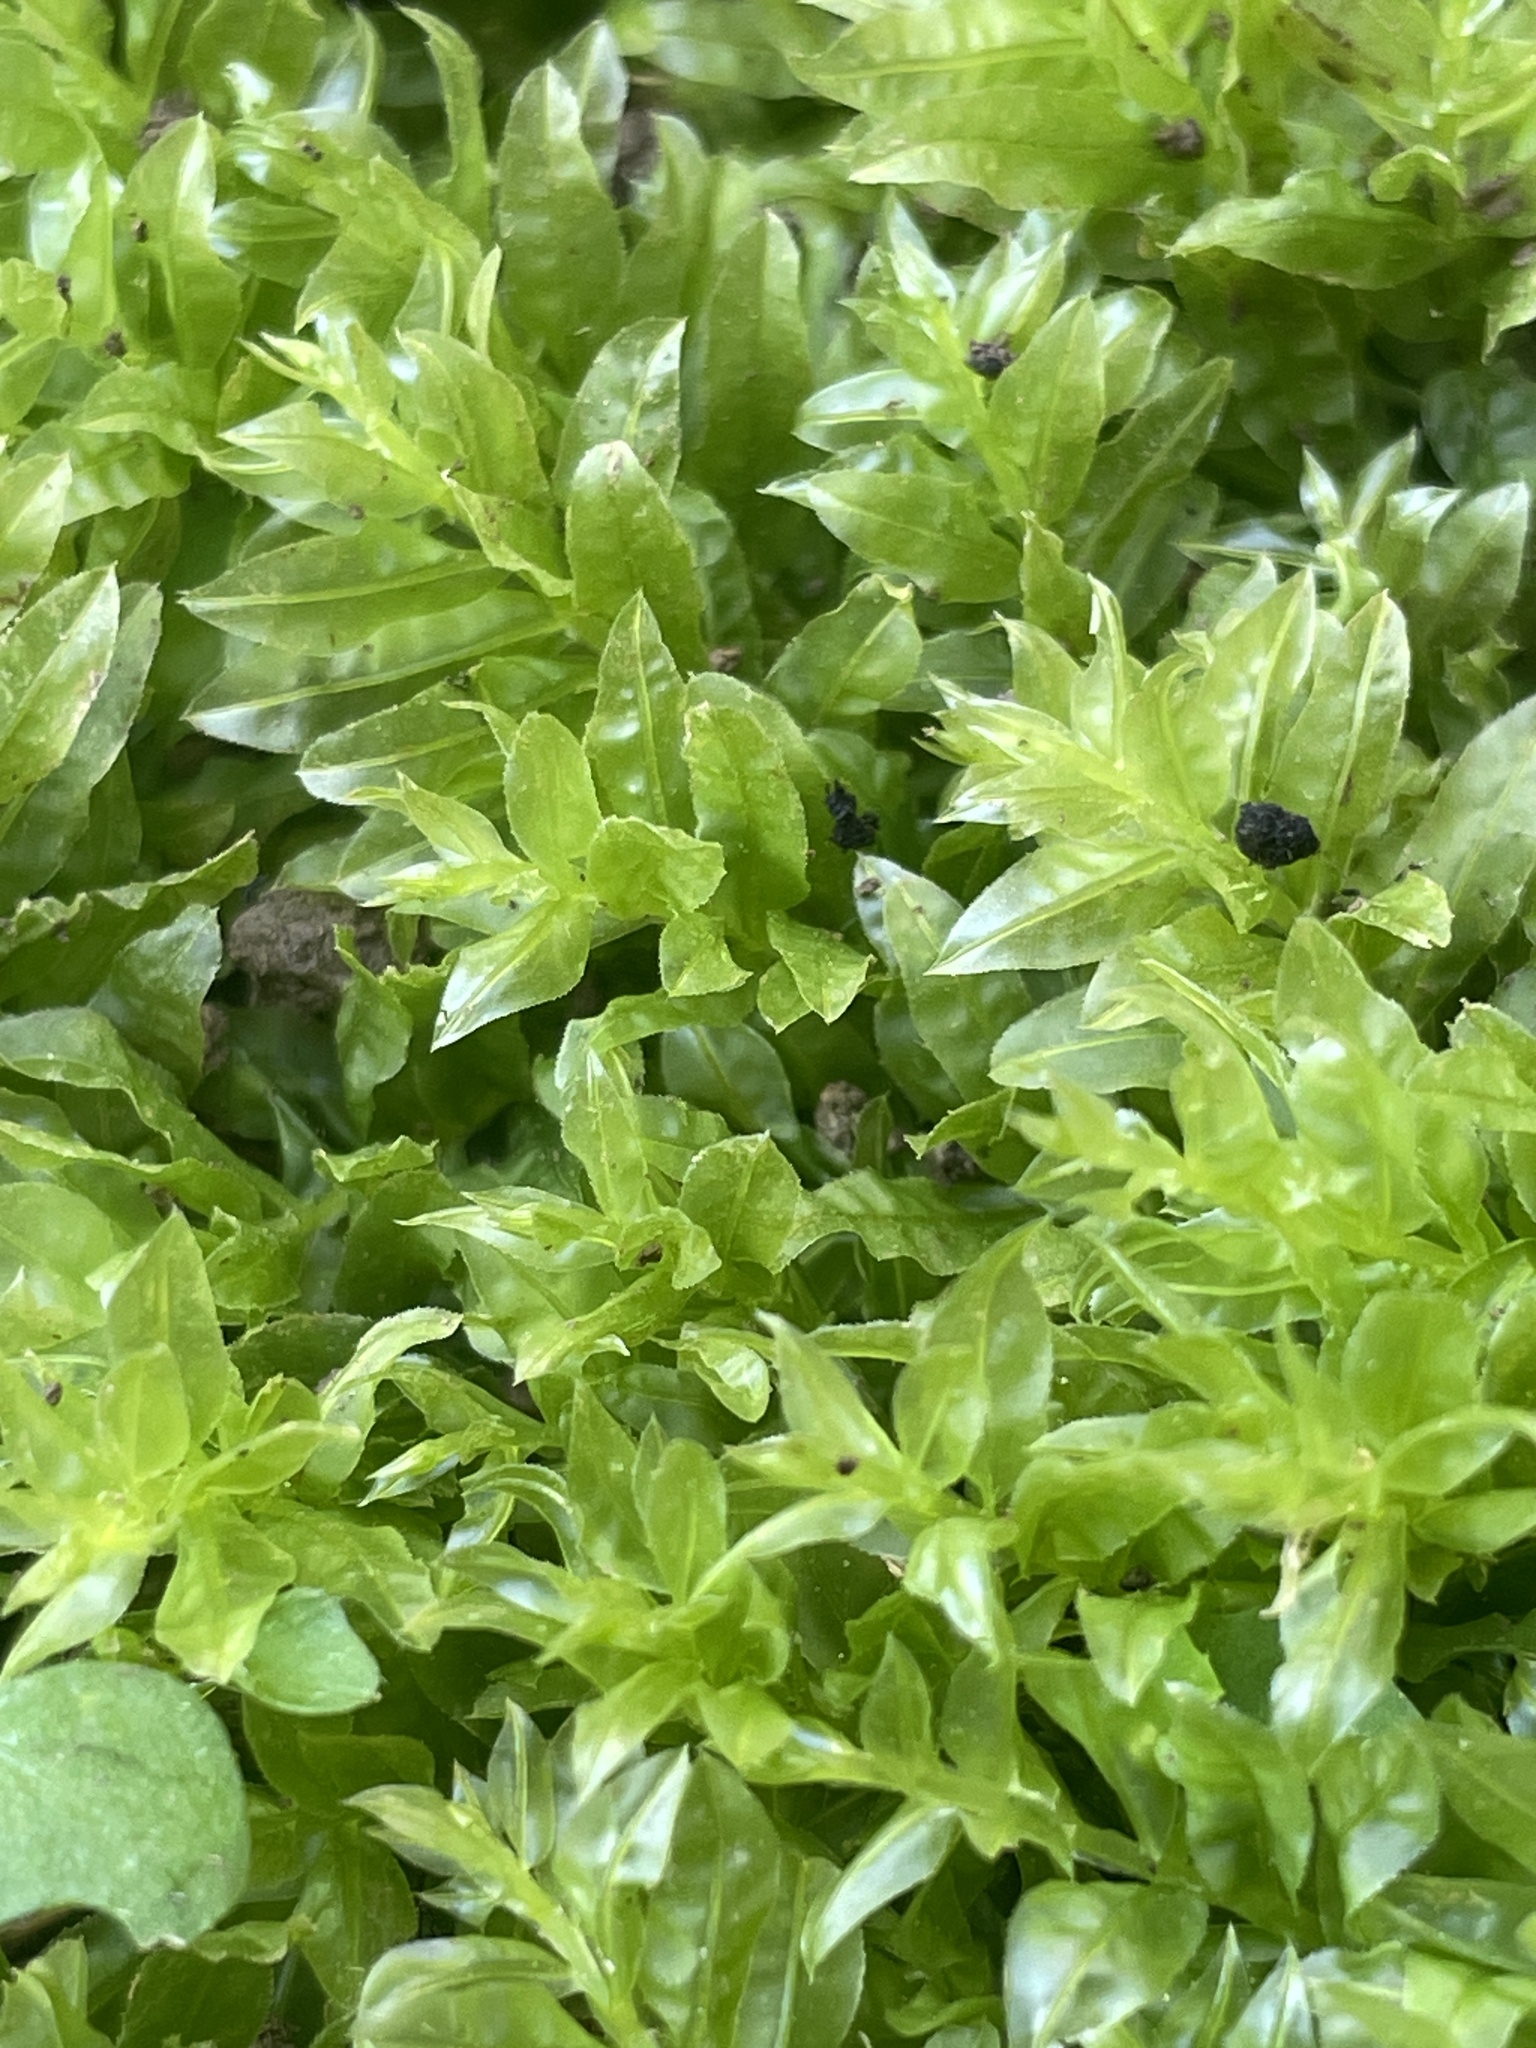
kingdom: Plantae
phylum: Bryophyta
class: Bryopsida
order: Bryales
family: Mniaceae
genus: Plagiomnium
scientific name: Plagiomnium undulatum
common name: Hart's-tongue thyme-moss
